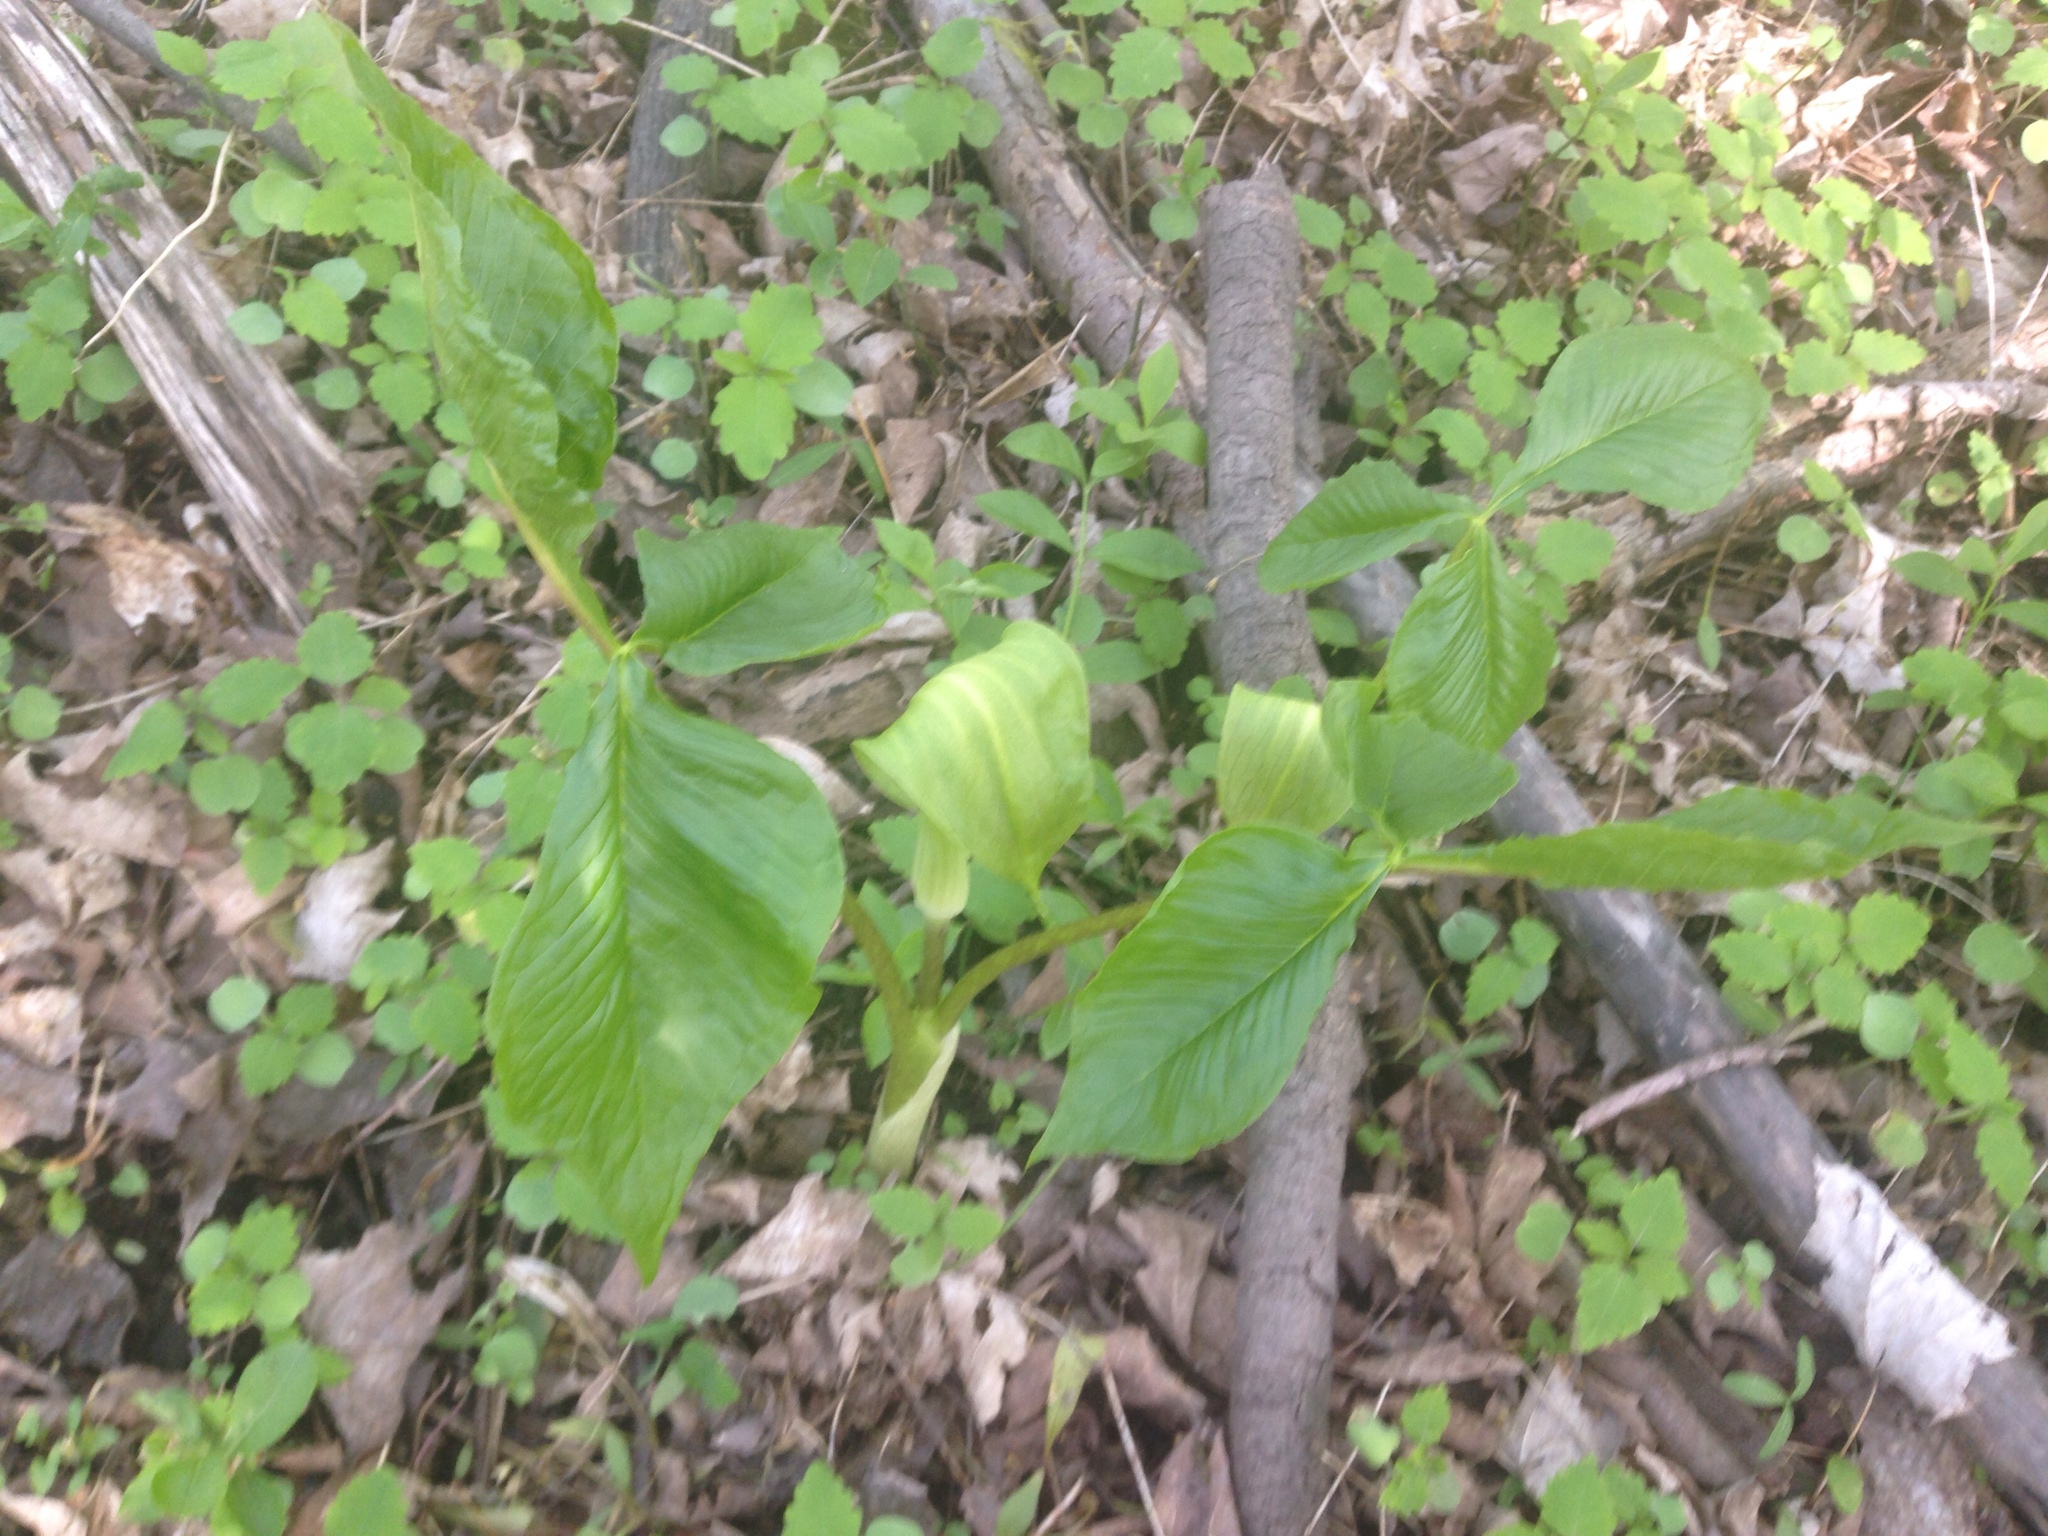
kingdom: Plantae
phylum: Tracheophyta
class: Liliopsida
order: Alismatales
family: Araceae
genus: Arisaema
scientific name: Arisaema triphyllum
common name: Jack-in-the-pulpit
